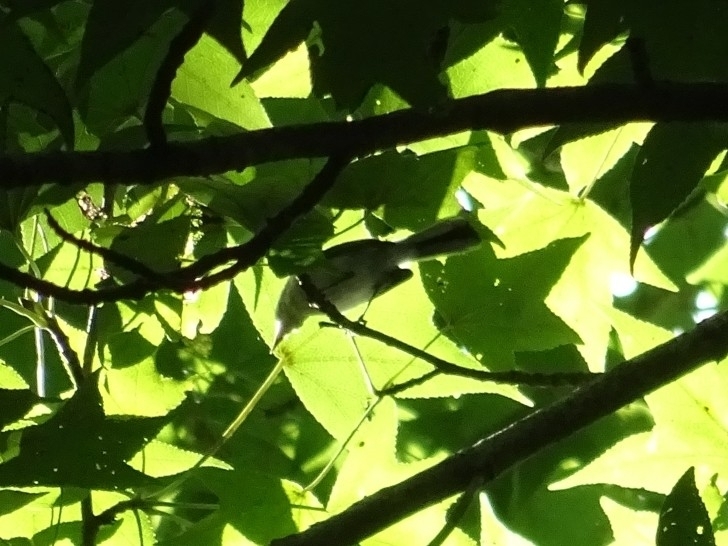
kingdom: Animalia
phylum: Chordata
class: Aves
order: Passeriformes
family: Polioptilidae
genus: Polioptila
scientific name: Polioptila caerulea
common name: Blue-gray gnatcatcher
